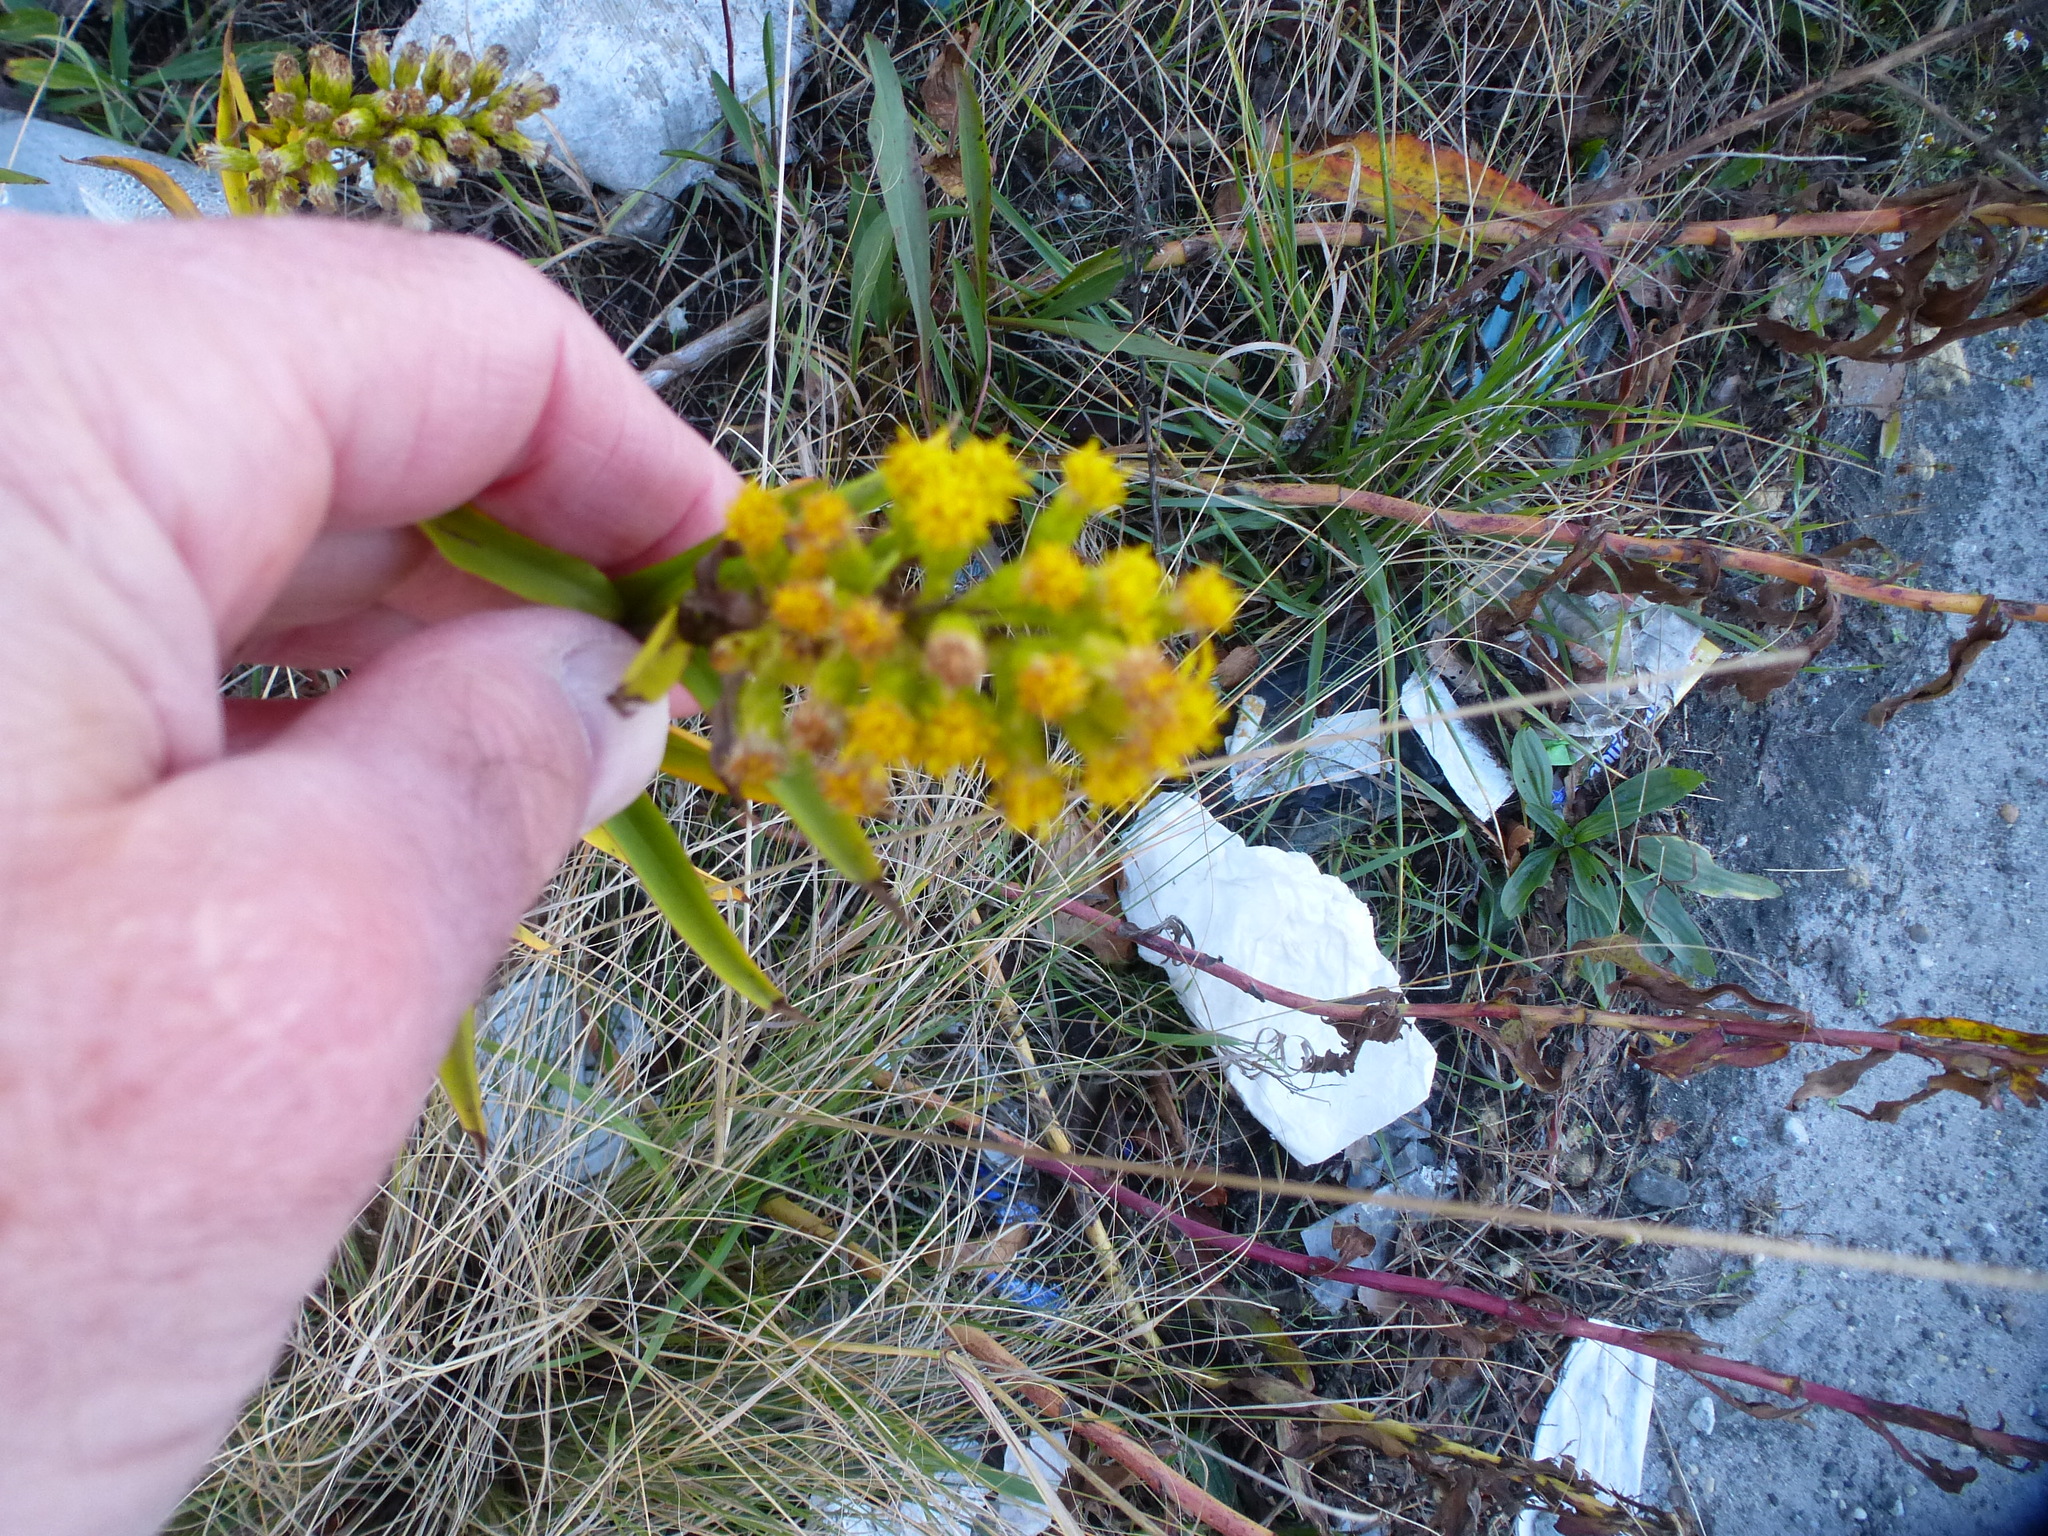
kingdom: Plantae
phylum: Tracheophyta
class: Magnoliopsida
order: Asterales
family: Asteraceae
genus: Solidago
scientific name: Solidago sempervirens
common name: Salt-marsh goldenrod
